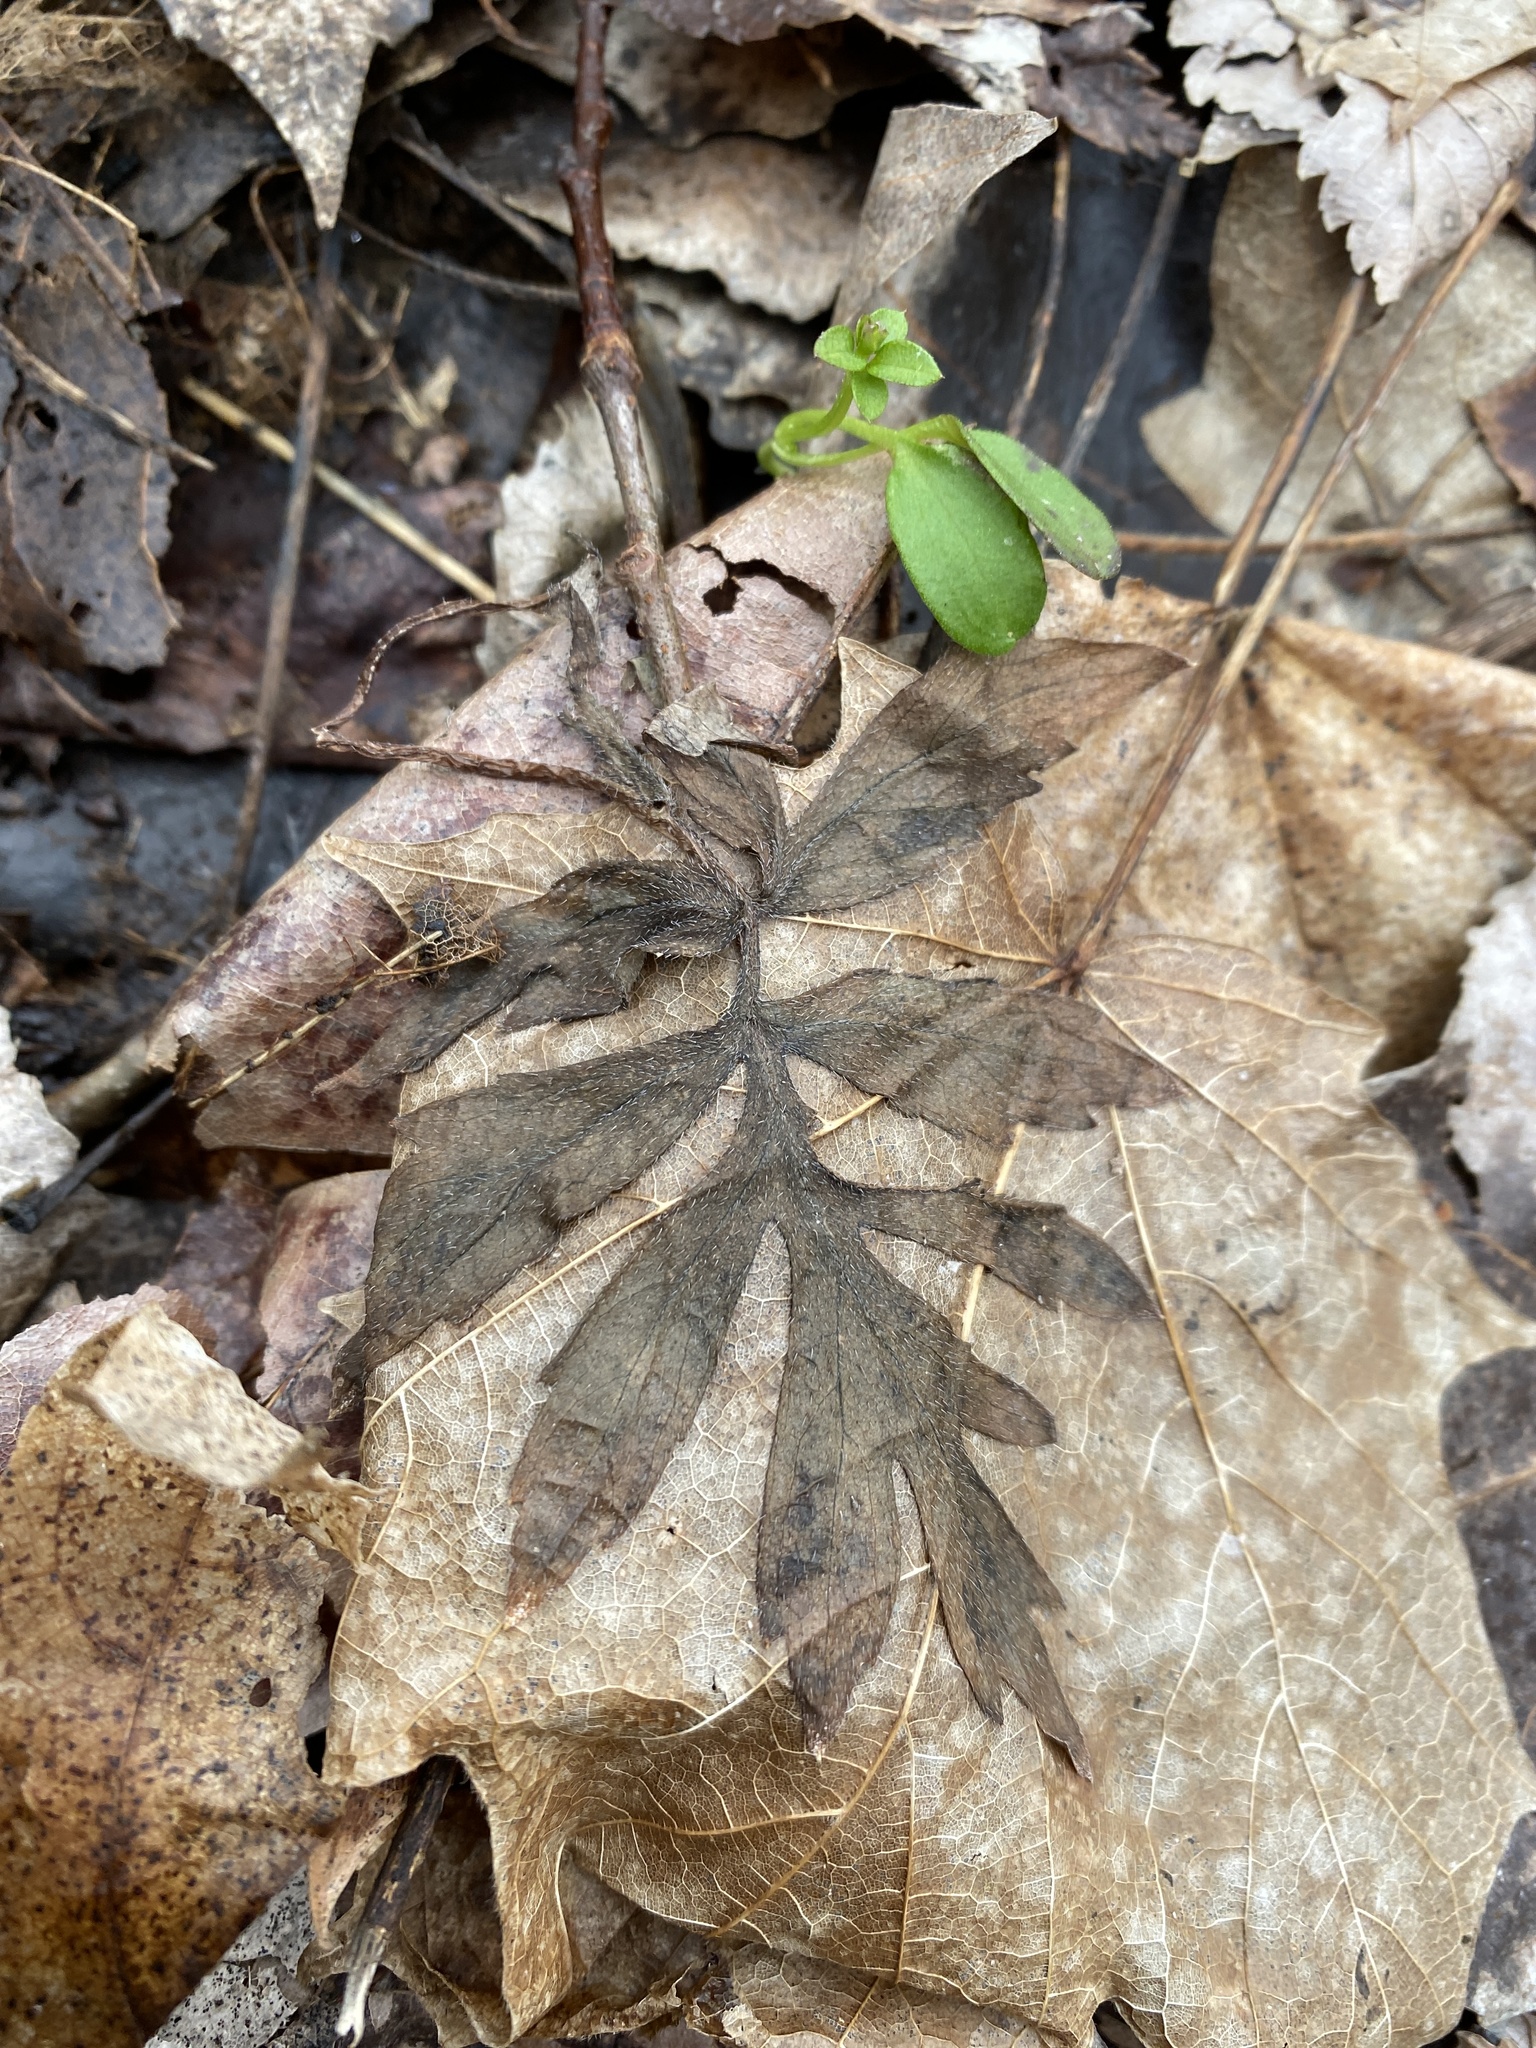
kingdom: Plantae
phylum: Tracheophyta
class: Magnoliopsida
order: Boraginales
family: Hydrophyllaceae
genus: Hydrophyllum
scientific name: Hydrophyllum virginianum
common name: Virginia waterleaf
